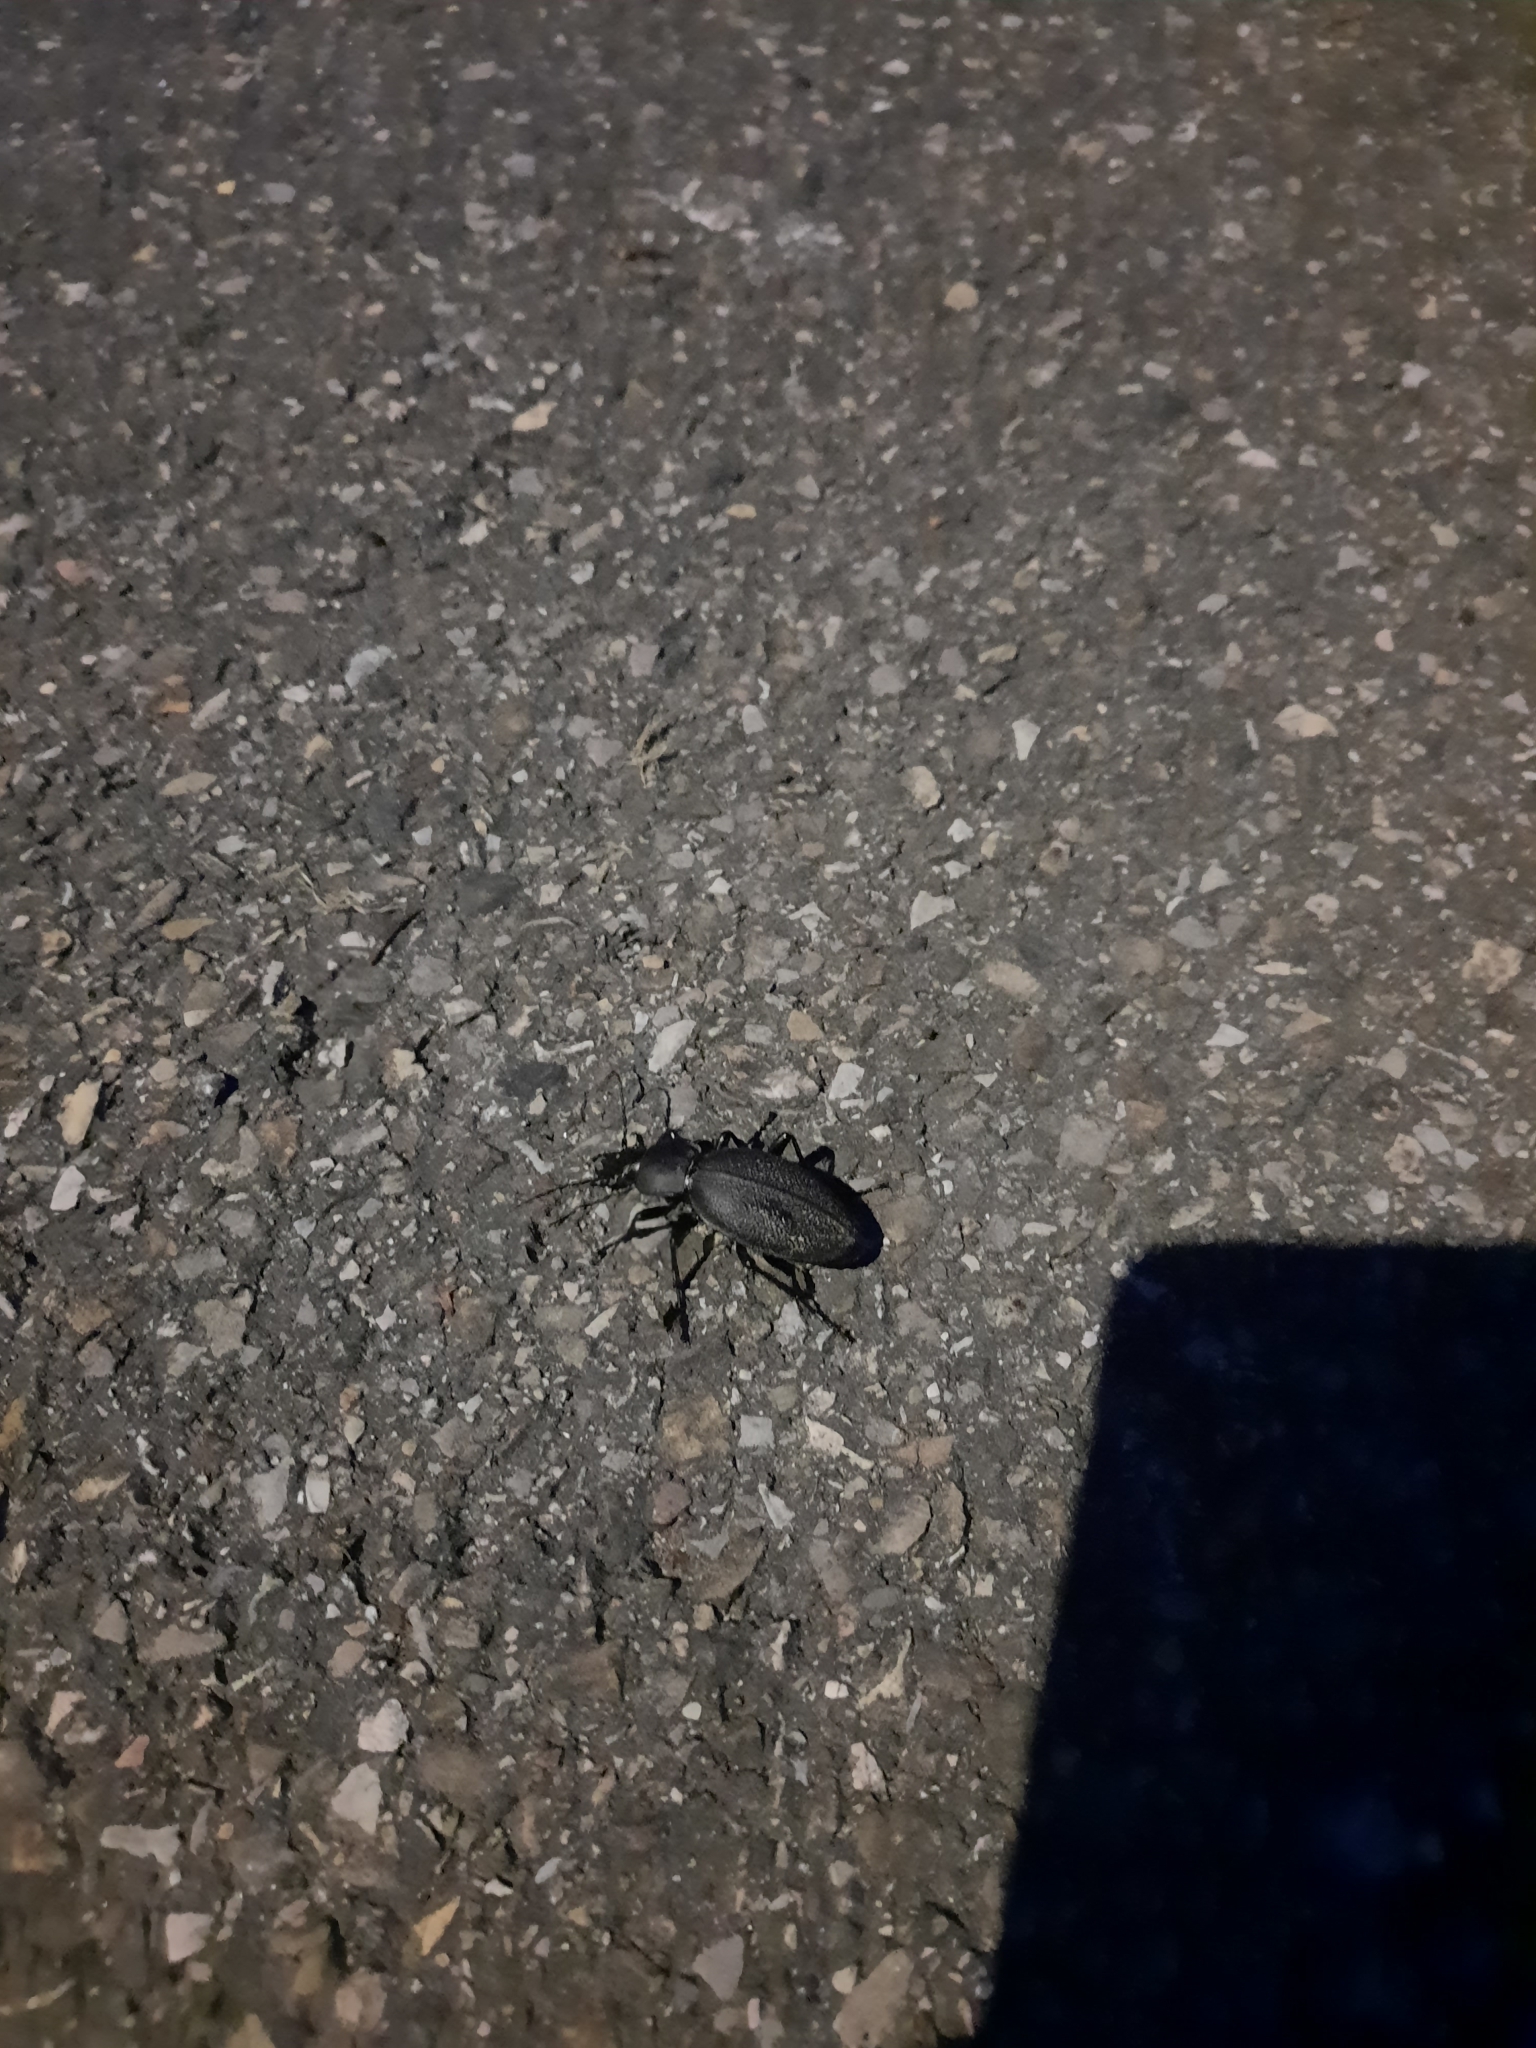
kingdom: Animalia
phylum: Arthropoda
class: Insecta
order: Coleoptera
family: Carabidae
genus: Carabus
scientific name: Carabus coriaceus
